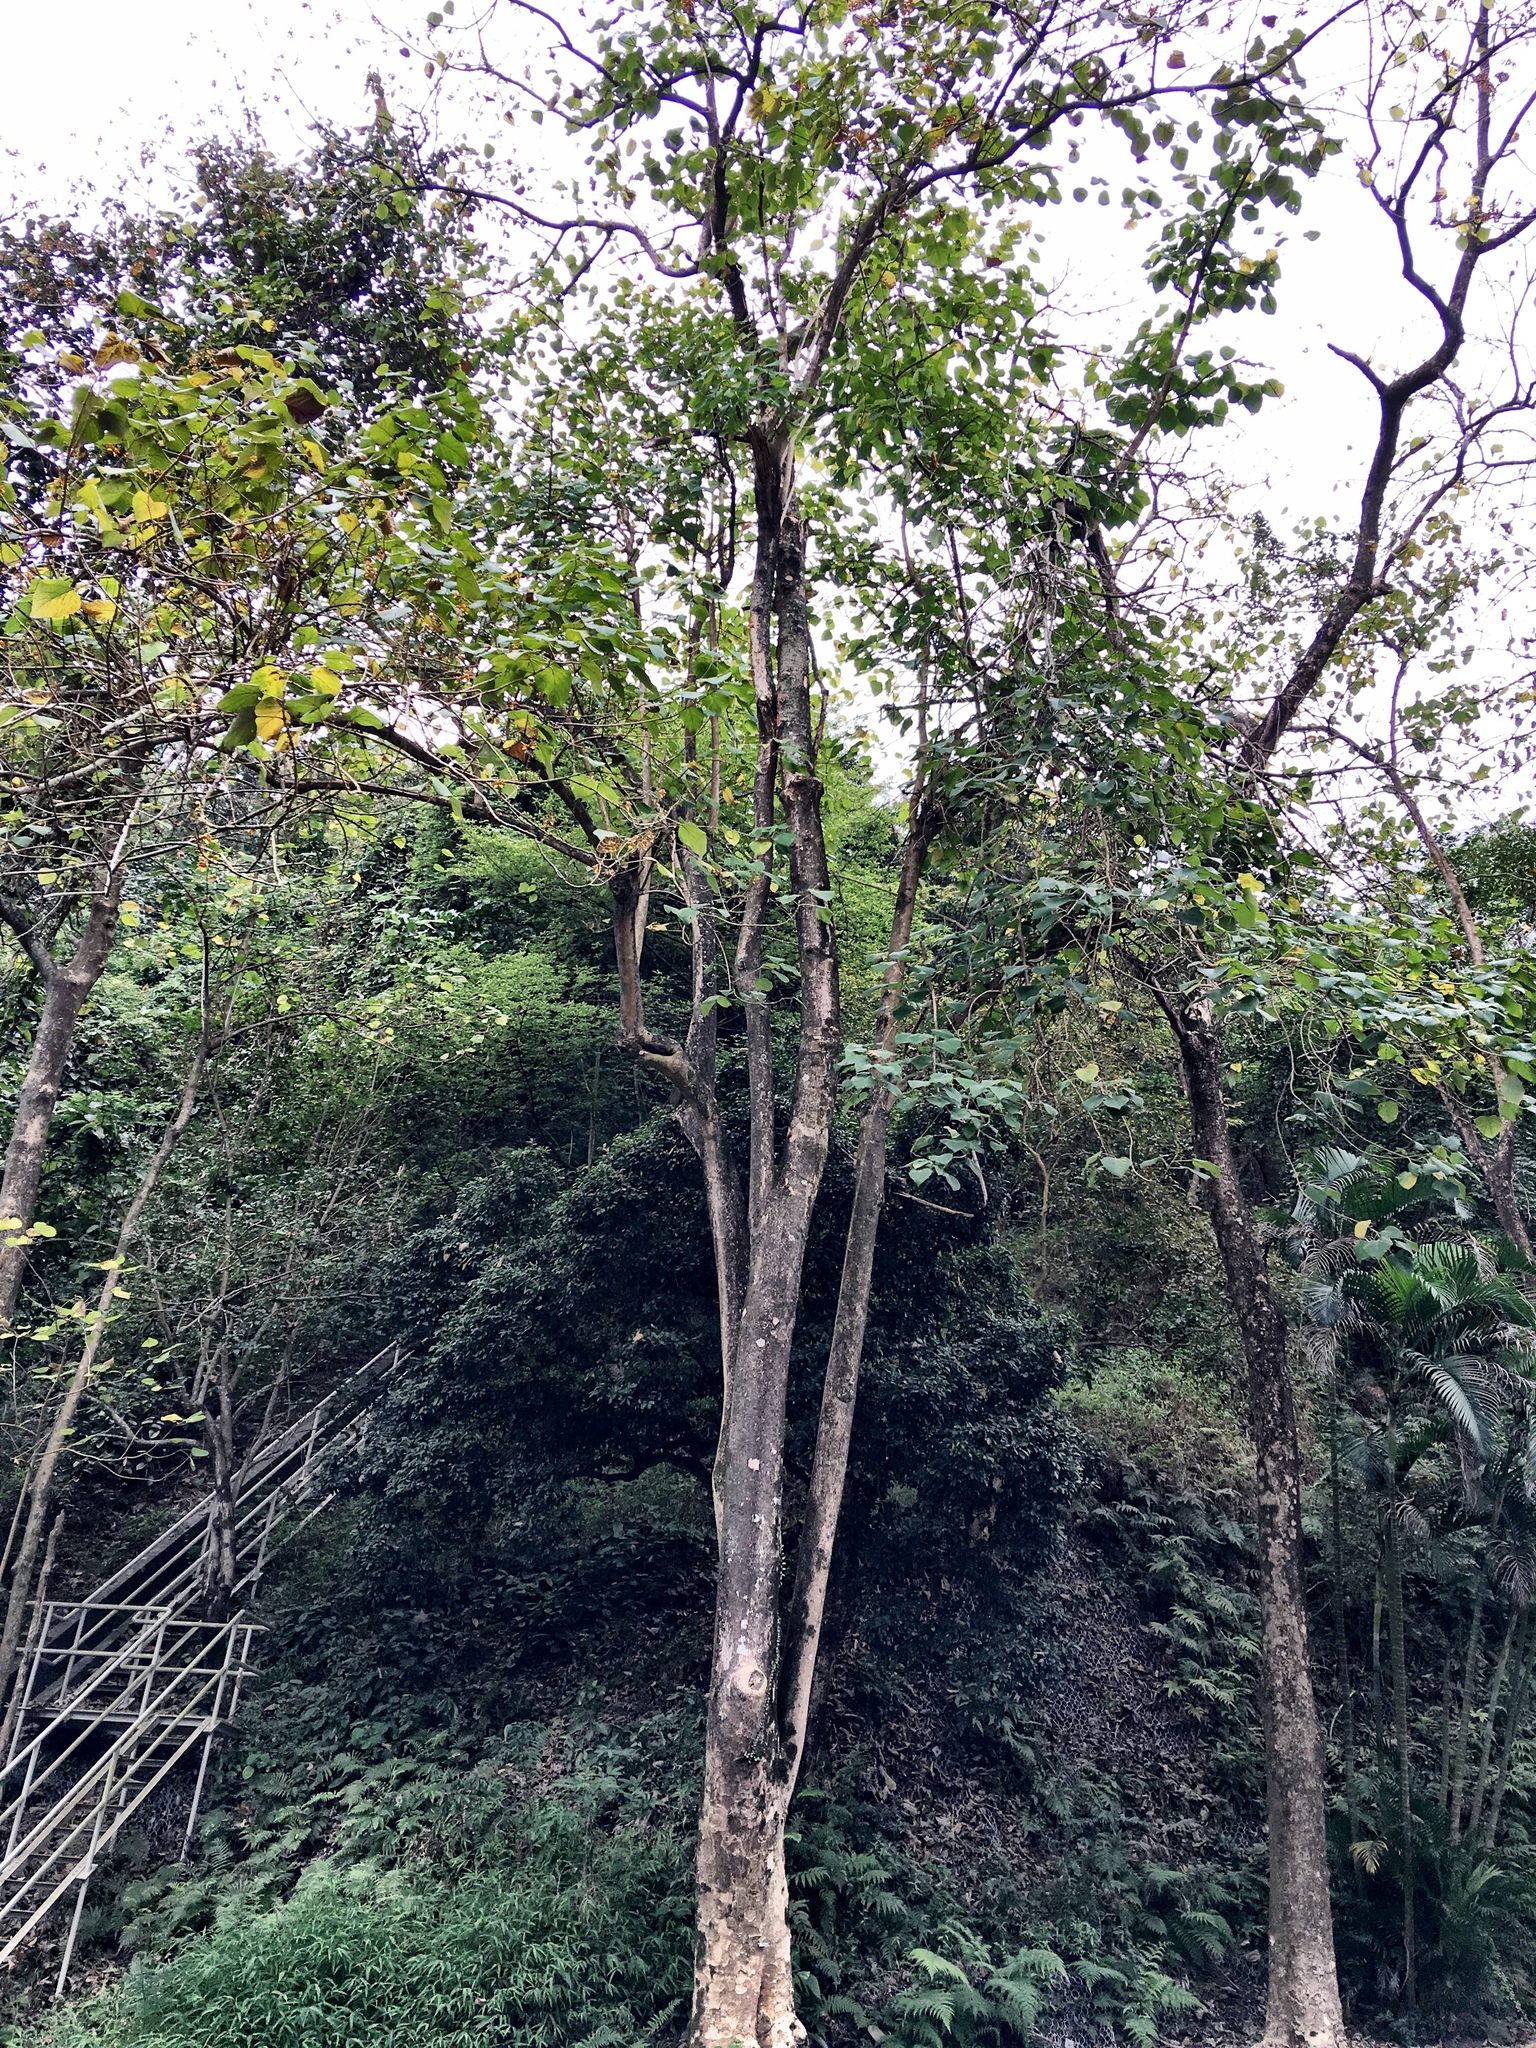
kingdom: Plantae
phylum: Tracheophyta
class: Magnoliopsida
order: Lamiales
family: Lamiaceae
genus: Gmelina
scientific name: Gmelina arborea
